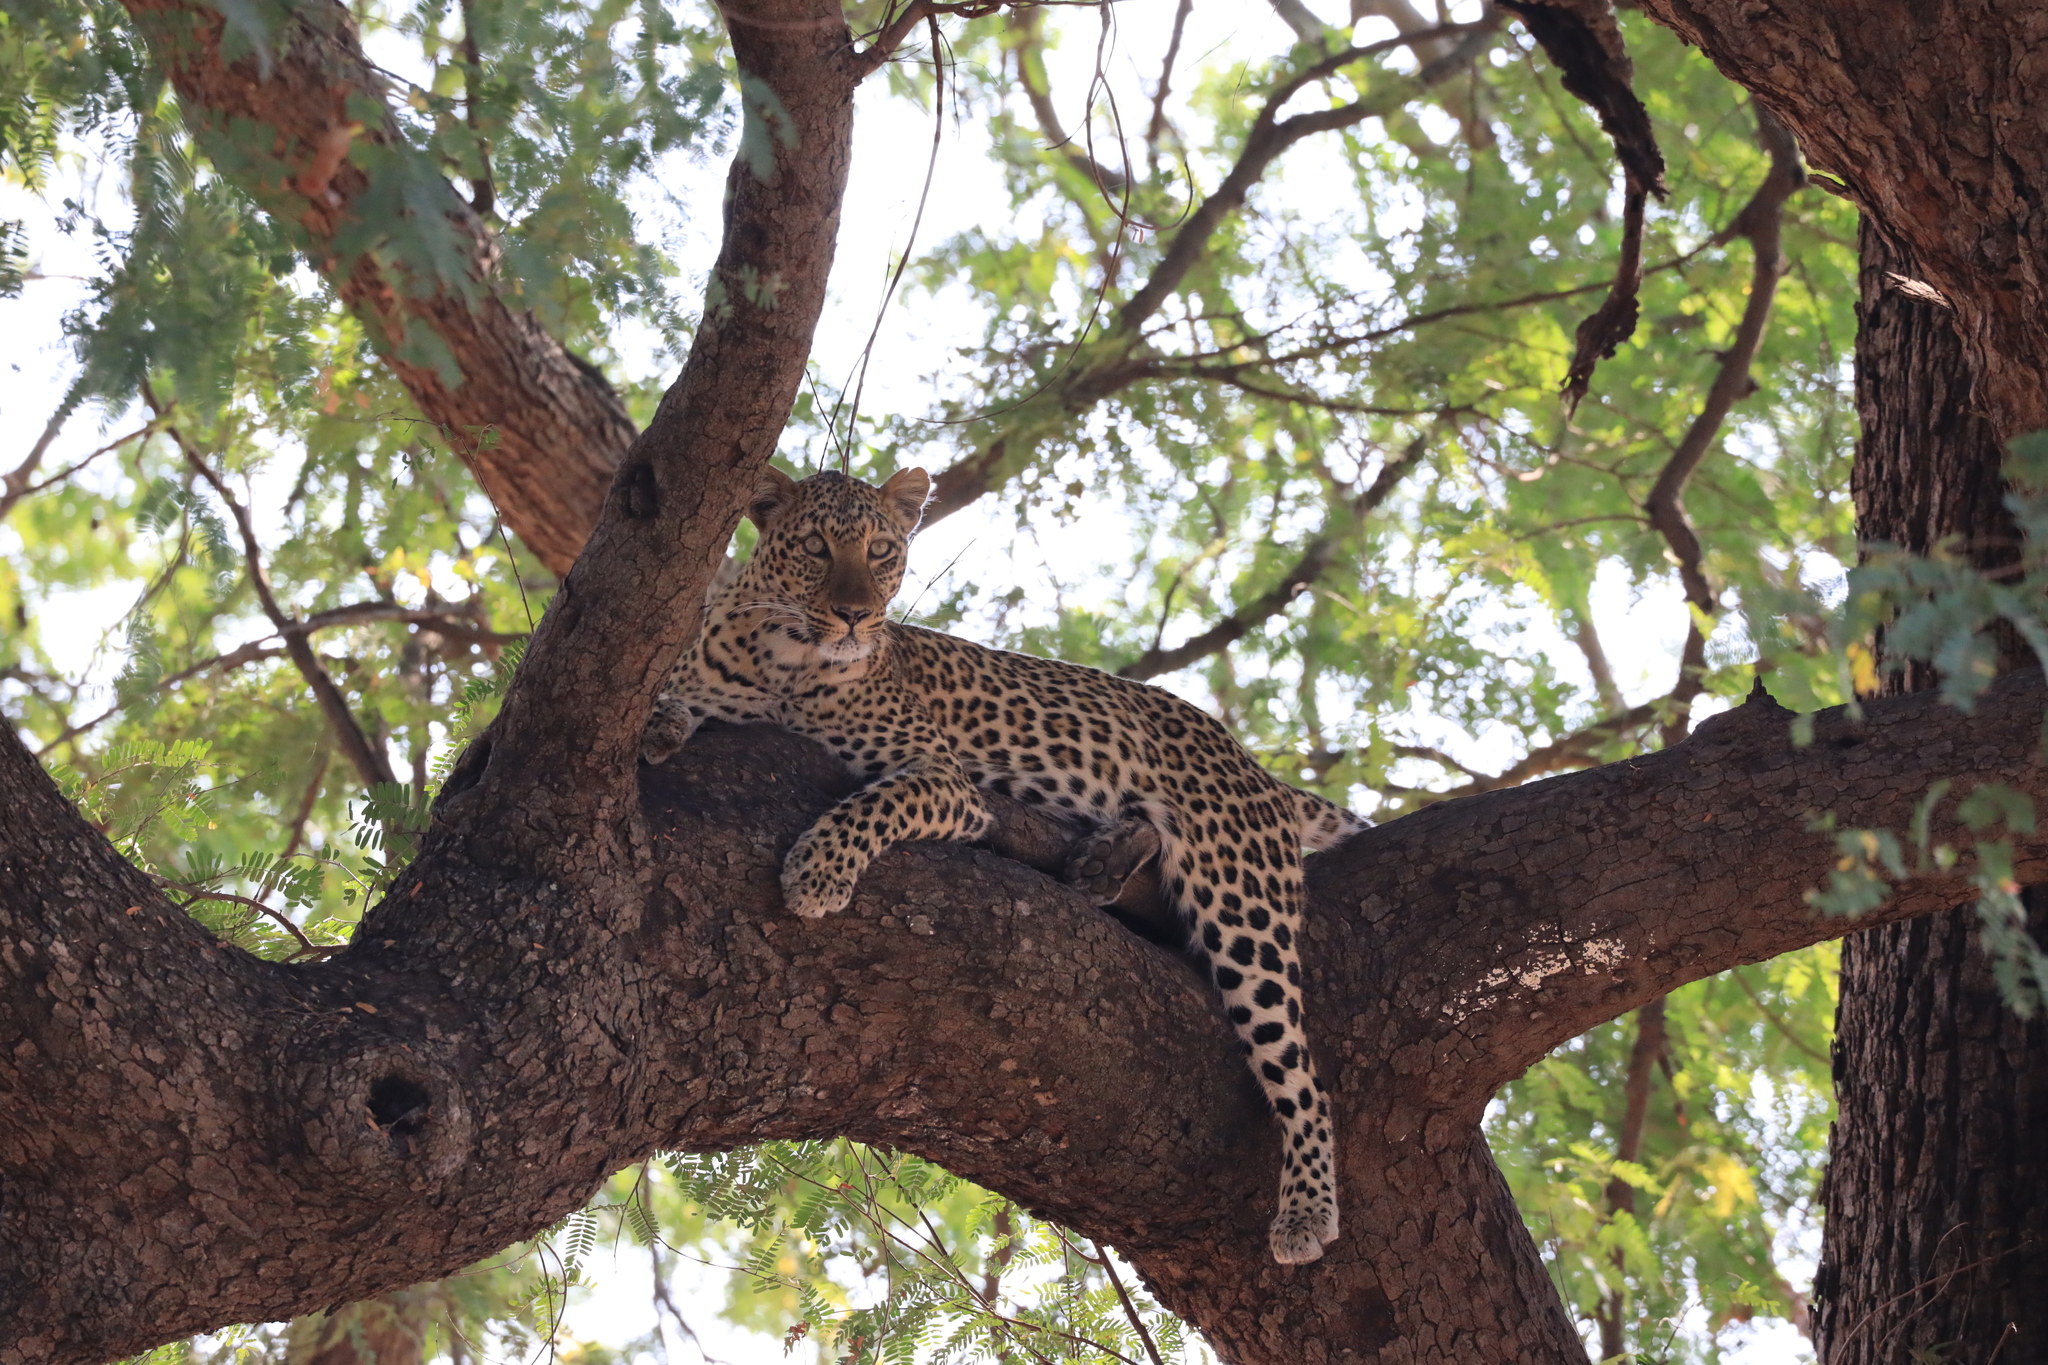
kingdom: Animalia
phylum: Chordata
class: Mammalia
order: Carnivora
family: Felidae
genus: Panthera
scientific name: Panthera pardus
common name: Leopard
